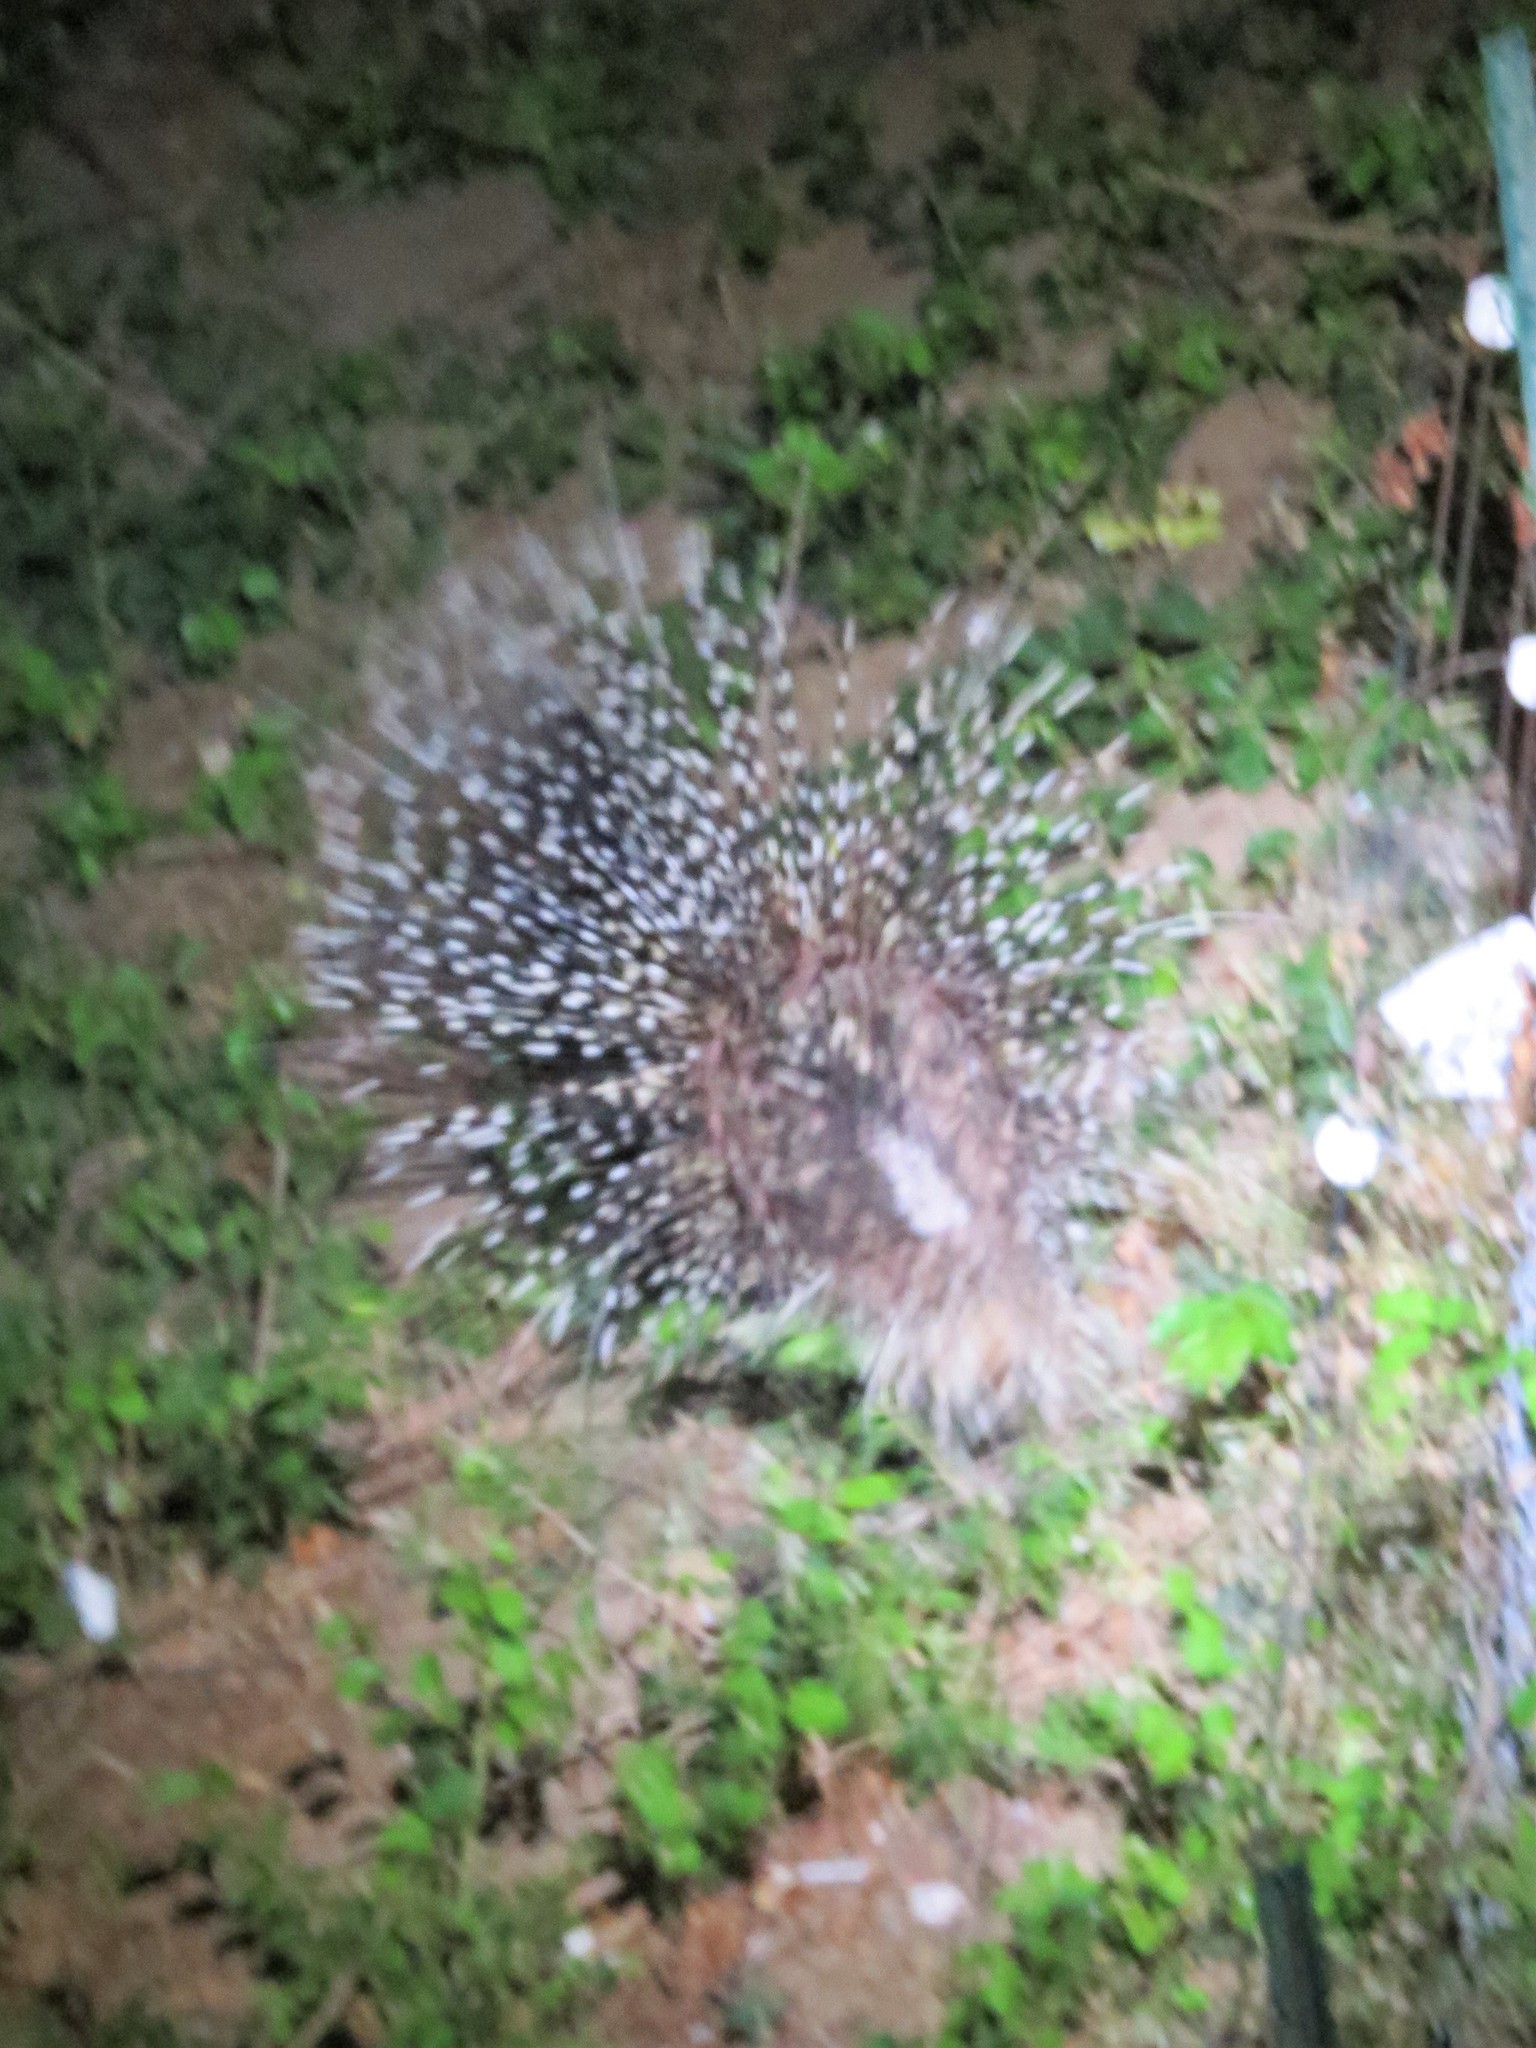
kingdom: Animalia
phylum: Chordata
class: Mammalia
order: Rodentia
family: Hystricidae
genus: Hystrix
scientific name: Hystrix africaeaustralis
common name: Cape porcupine
